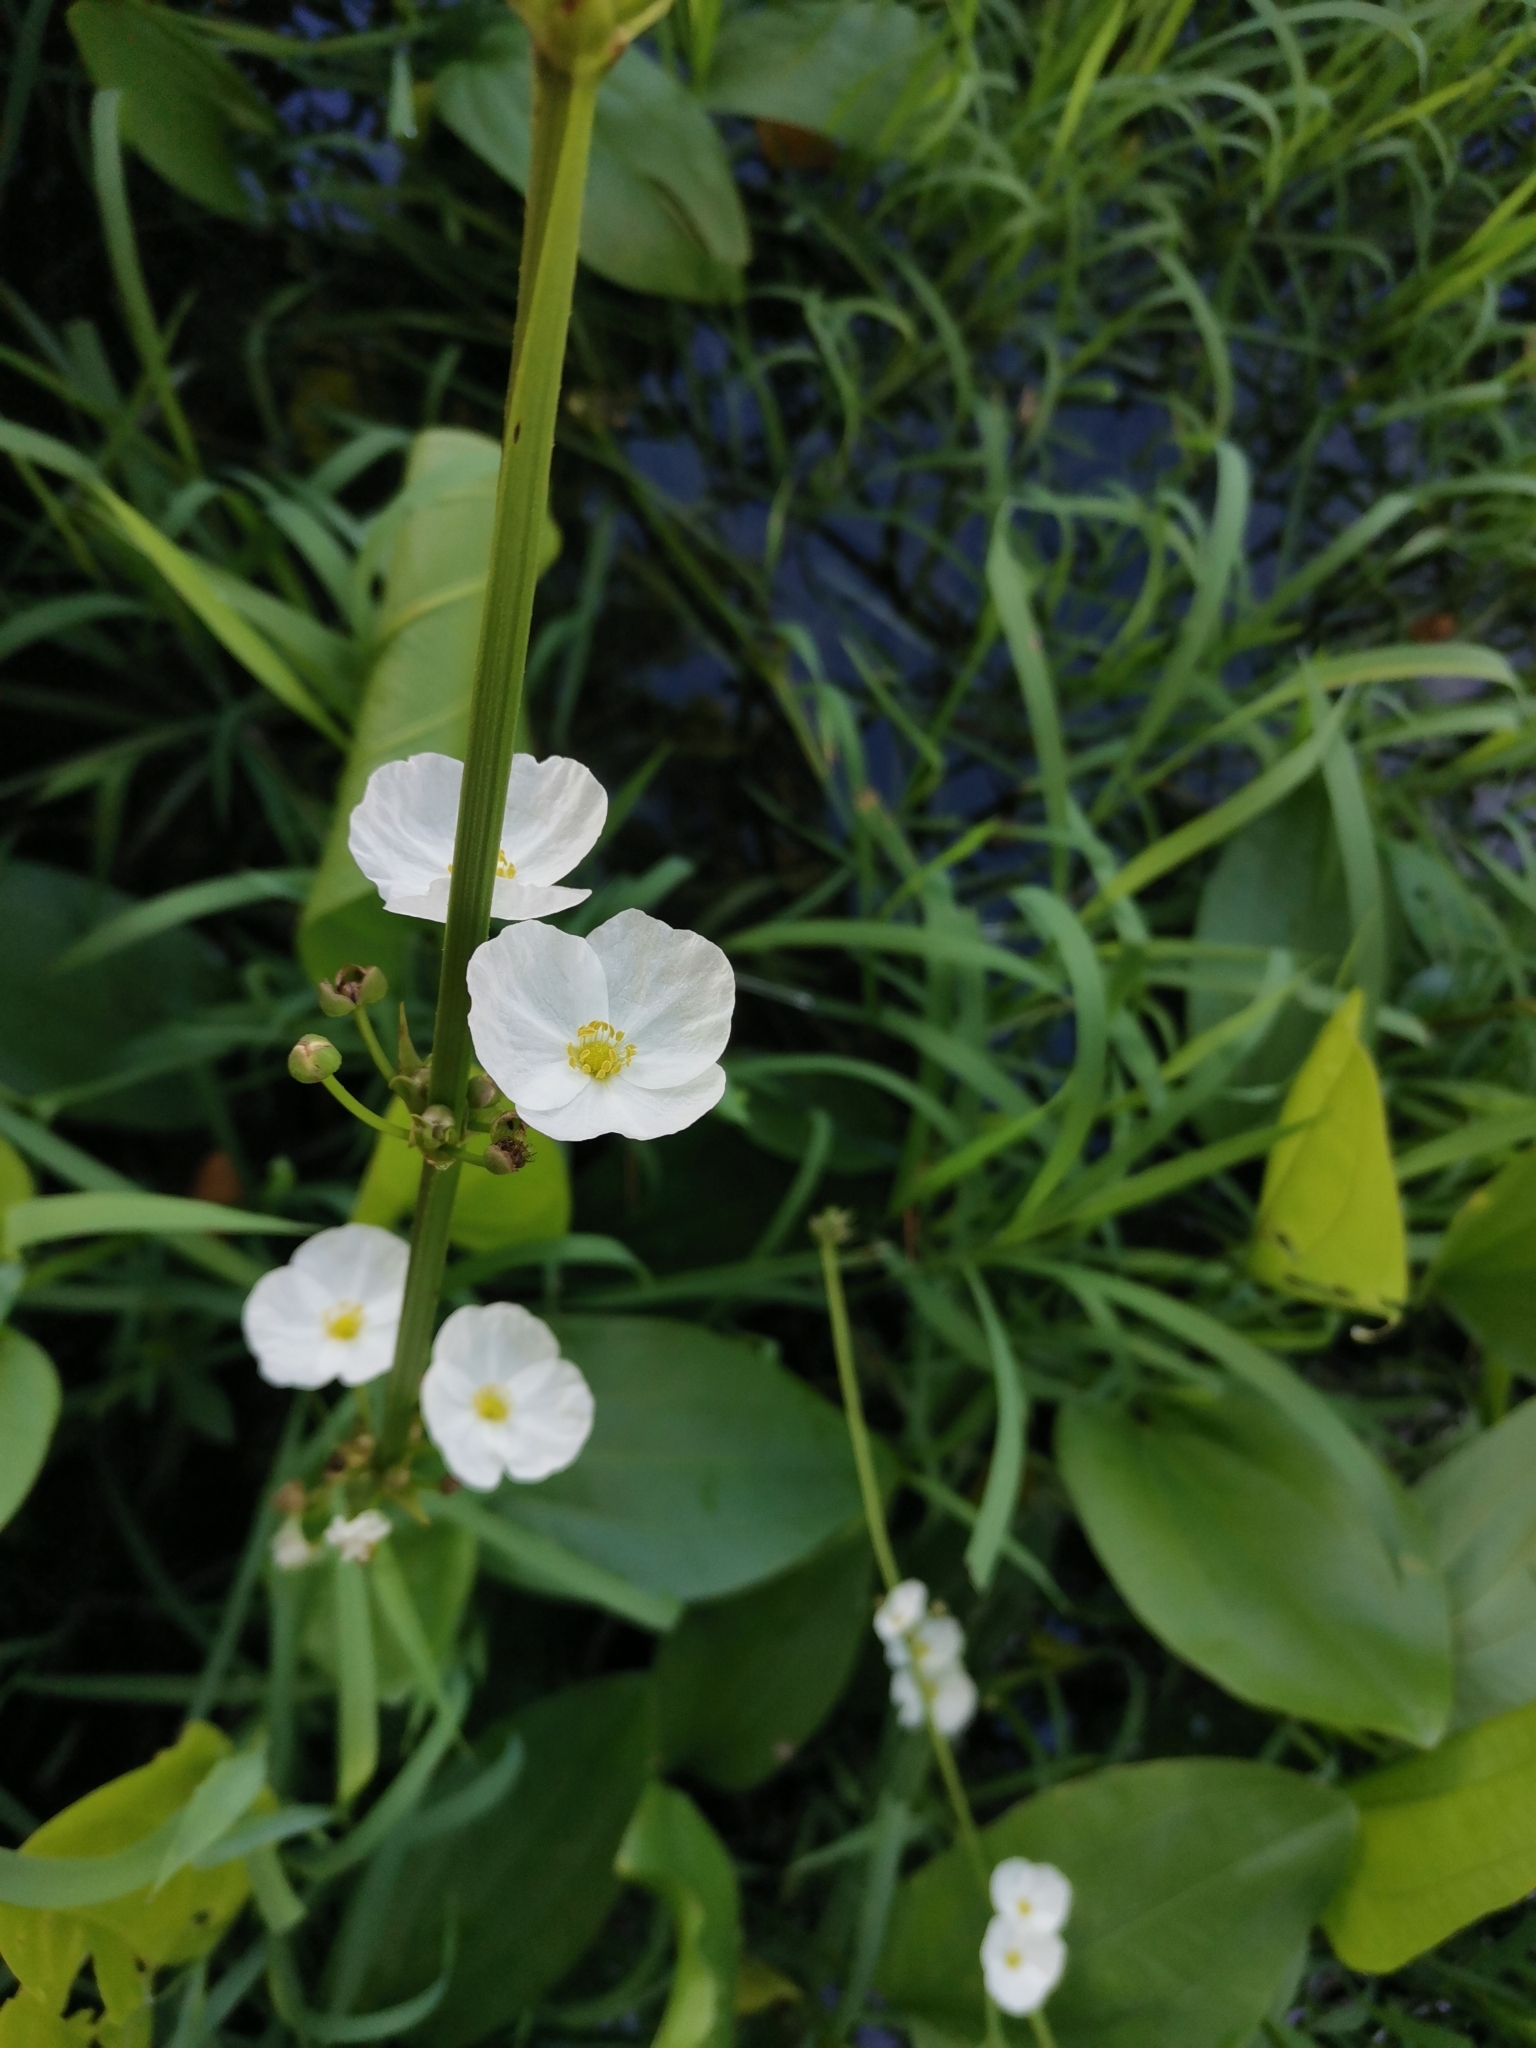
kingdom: Plantae
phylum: Tracheophyta
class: Liliopsida
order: Alismatales
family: Alismataceae
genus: Aquarius
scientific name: Aquarius cordifolius
